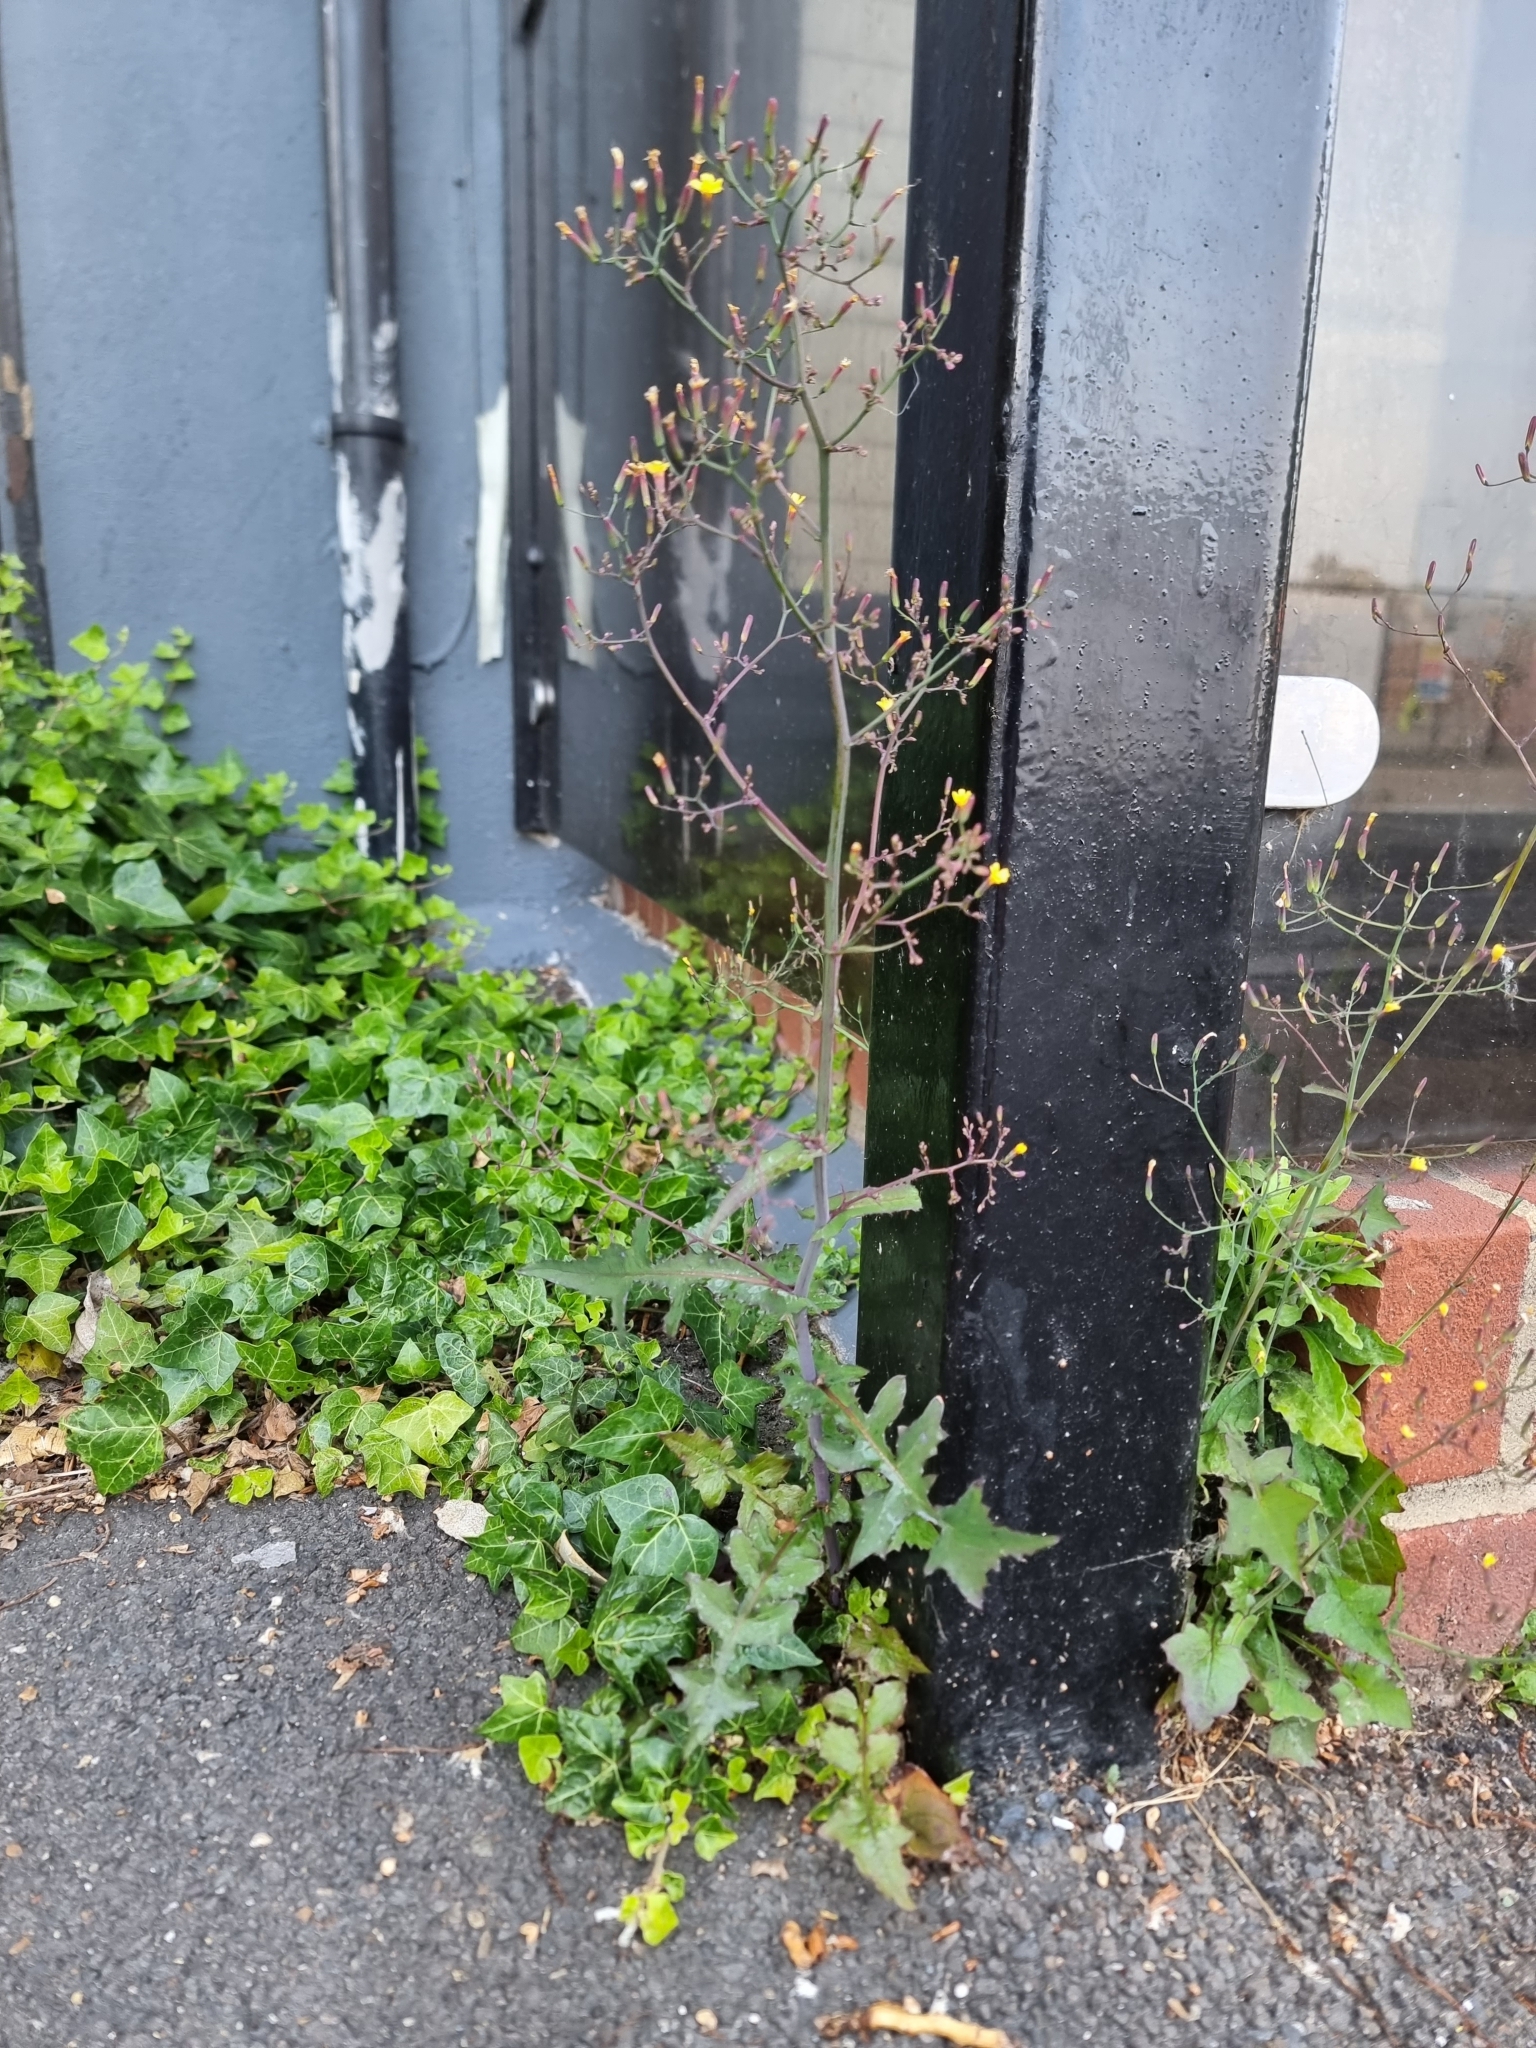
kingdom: Plantae
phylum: Tracheophyta
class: Magnoliopsida
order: Asterales
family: Asteraceae
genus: Mycelis
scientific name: Mycelis muralis
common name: Wall lettuce
